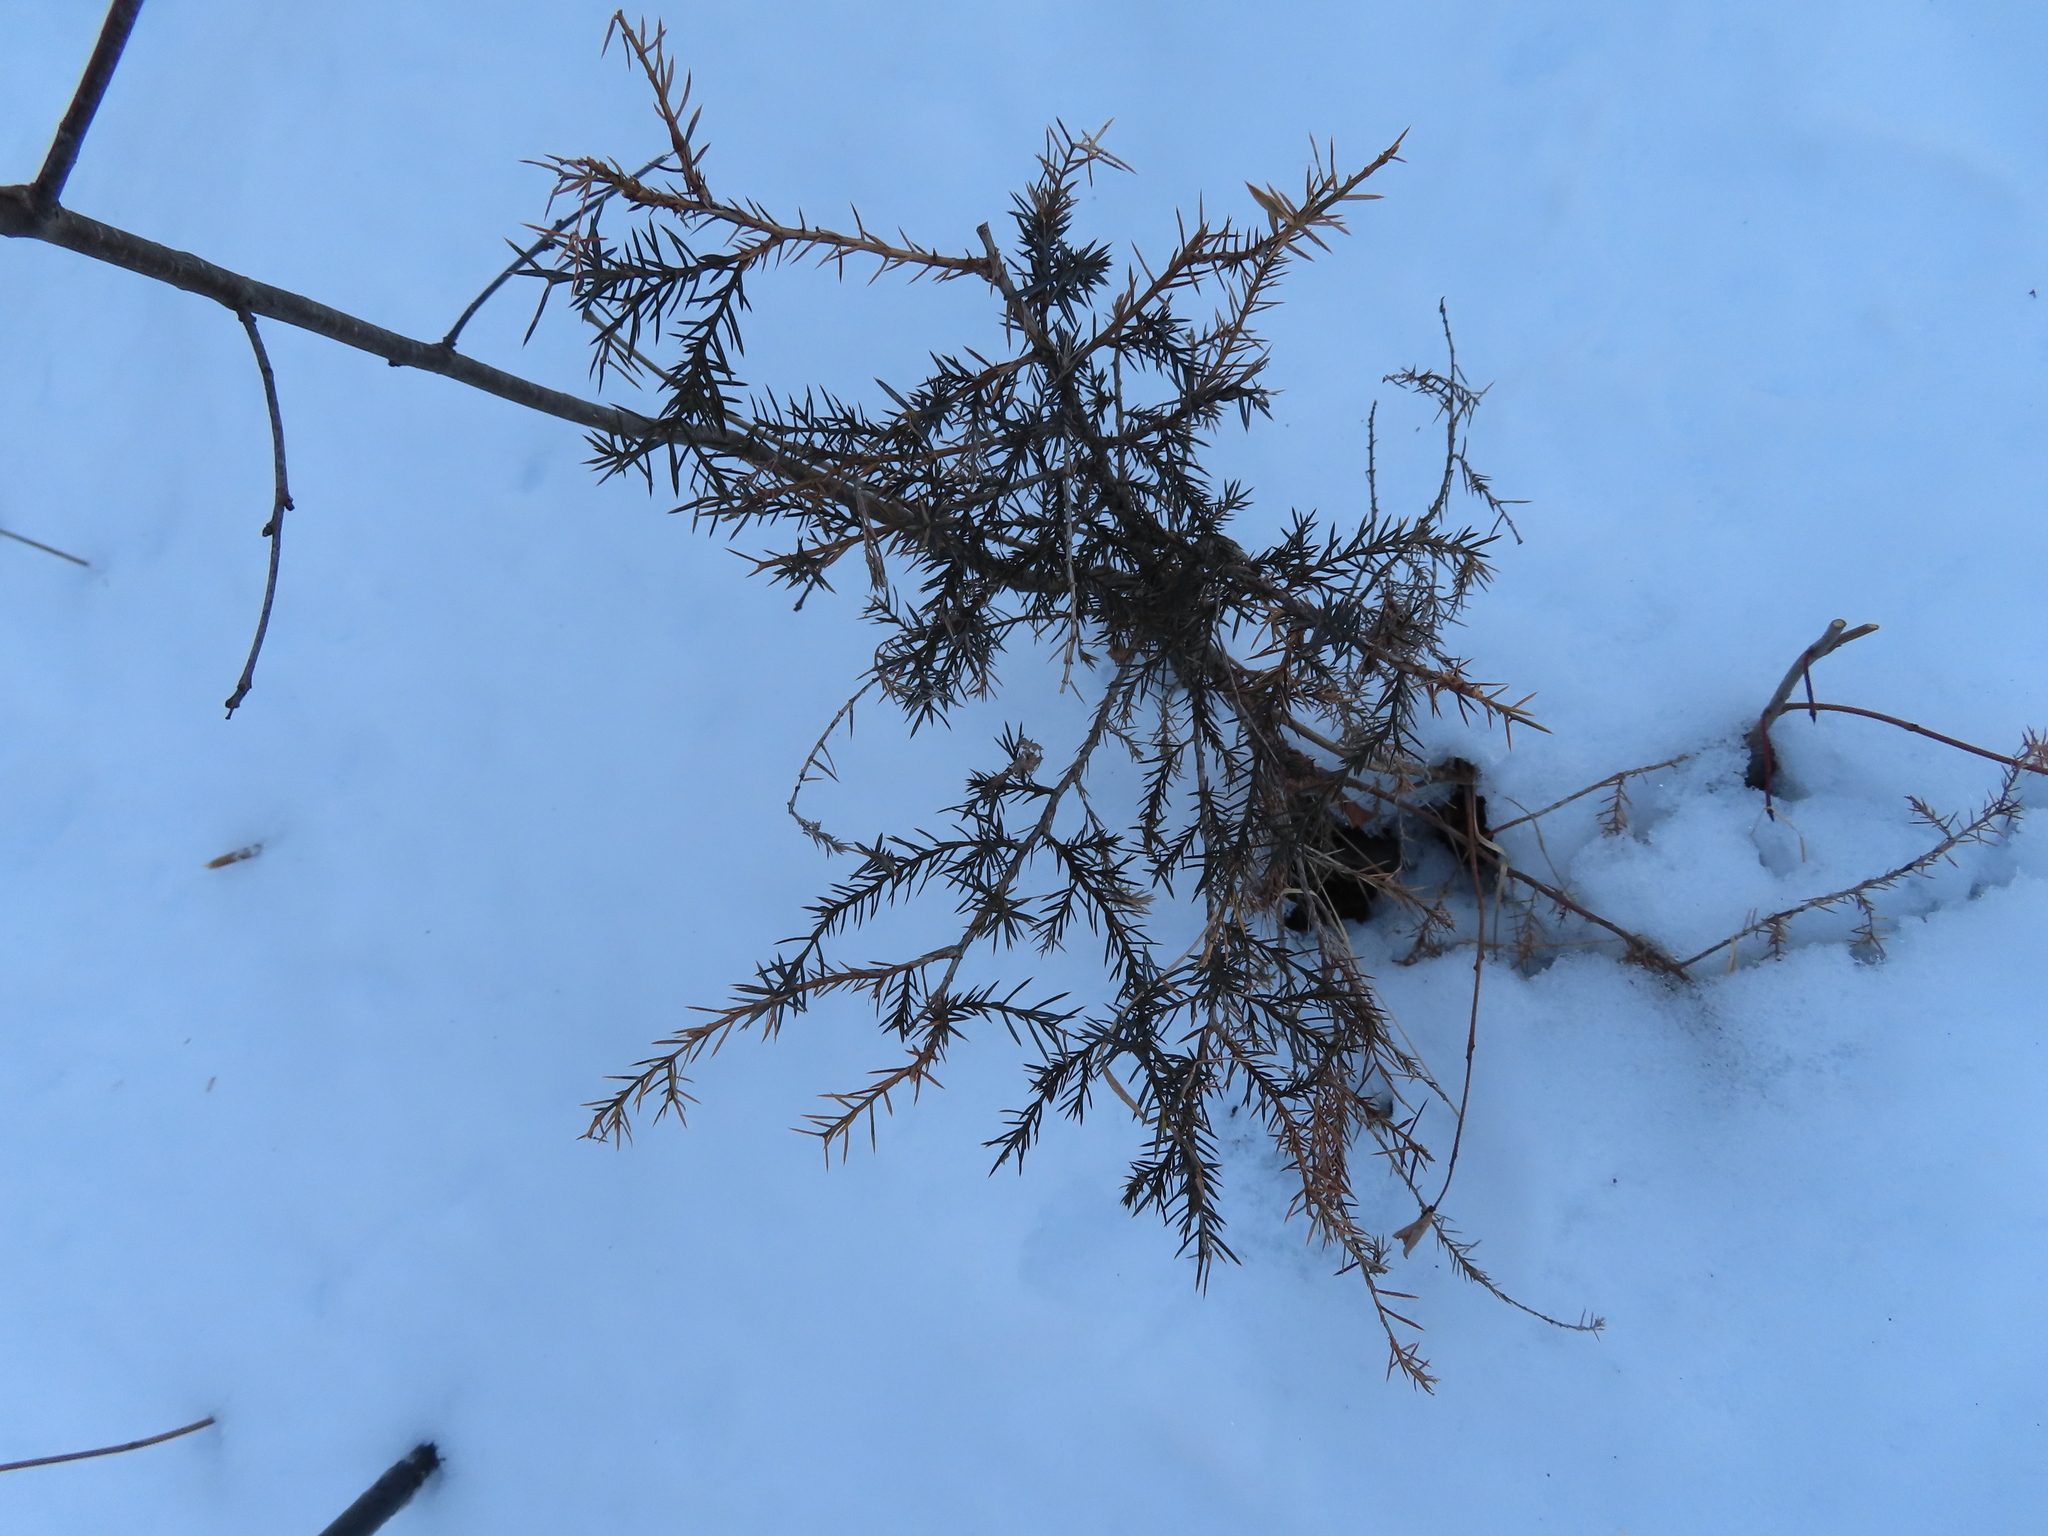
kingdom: Plantae
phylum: Tracheophyta
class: Pinopsida
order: Pinales
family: Cupressaceae
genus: Juniperus
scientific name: Juniperus virginiana
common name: Red juniper
